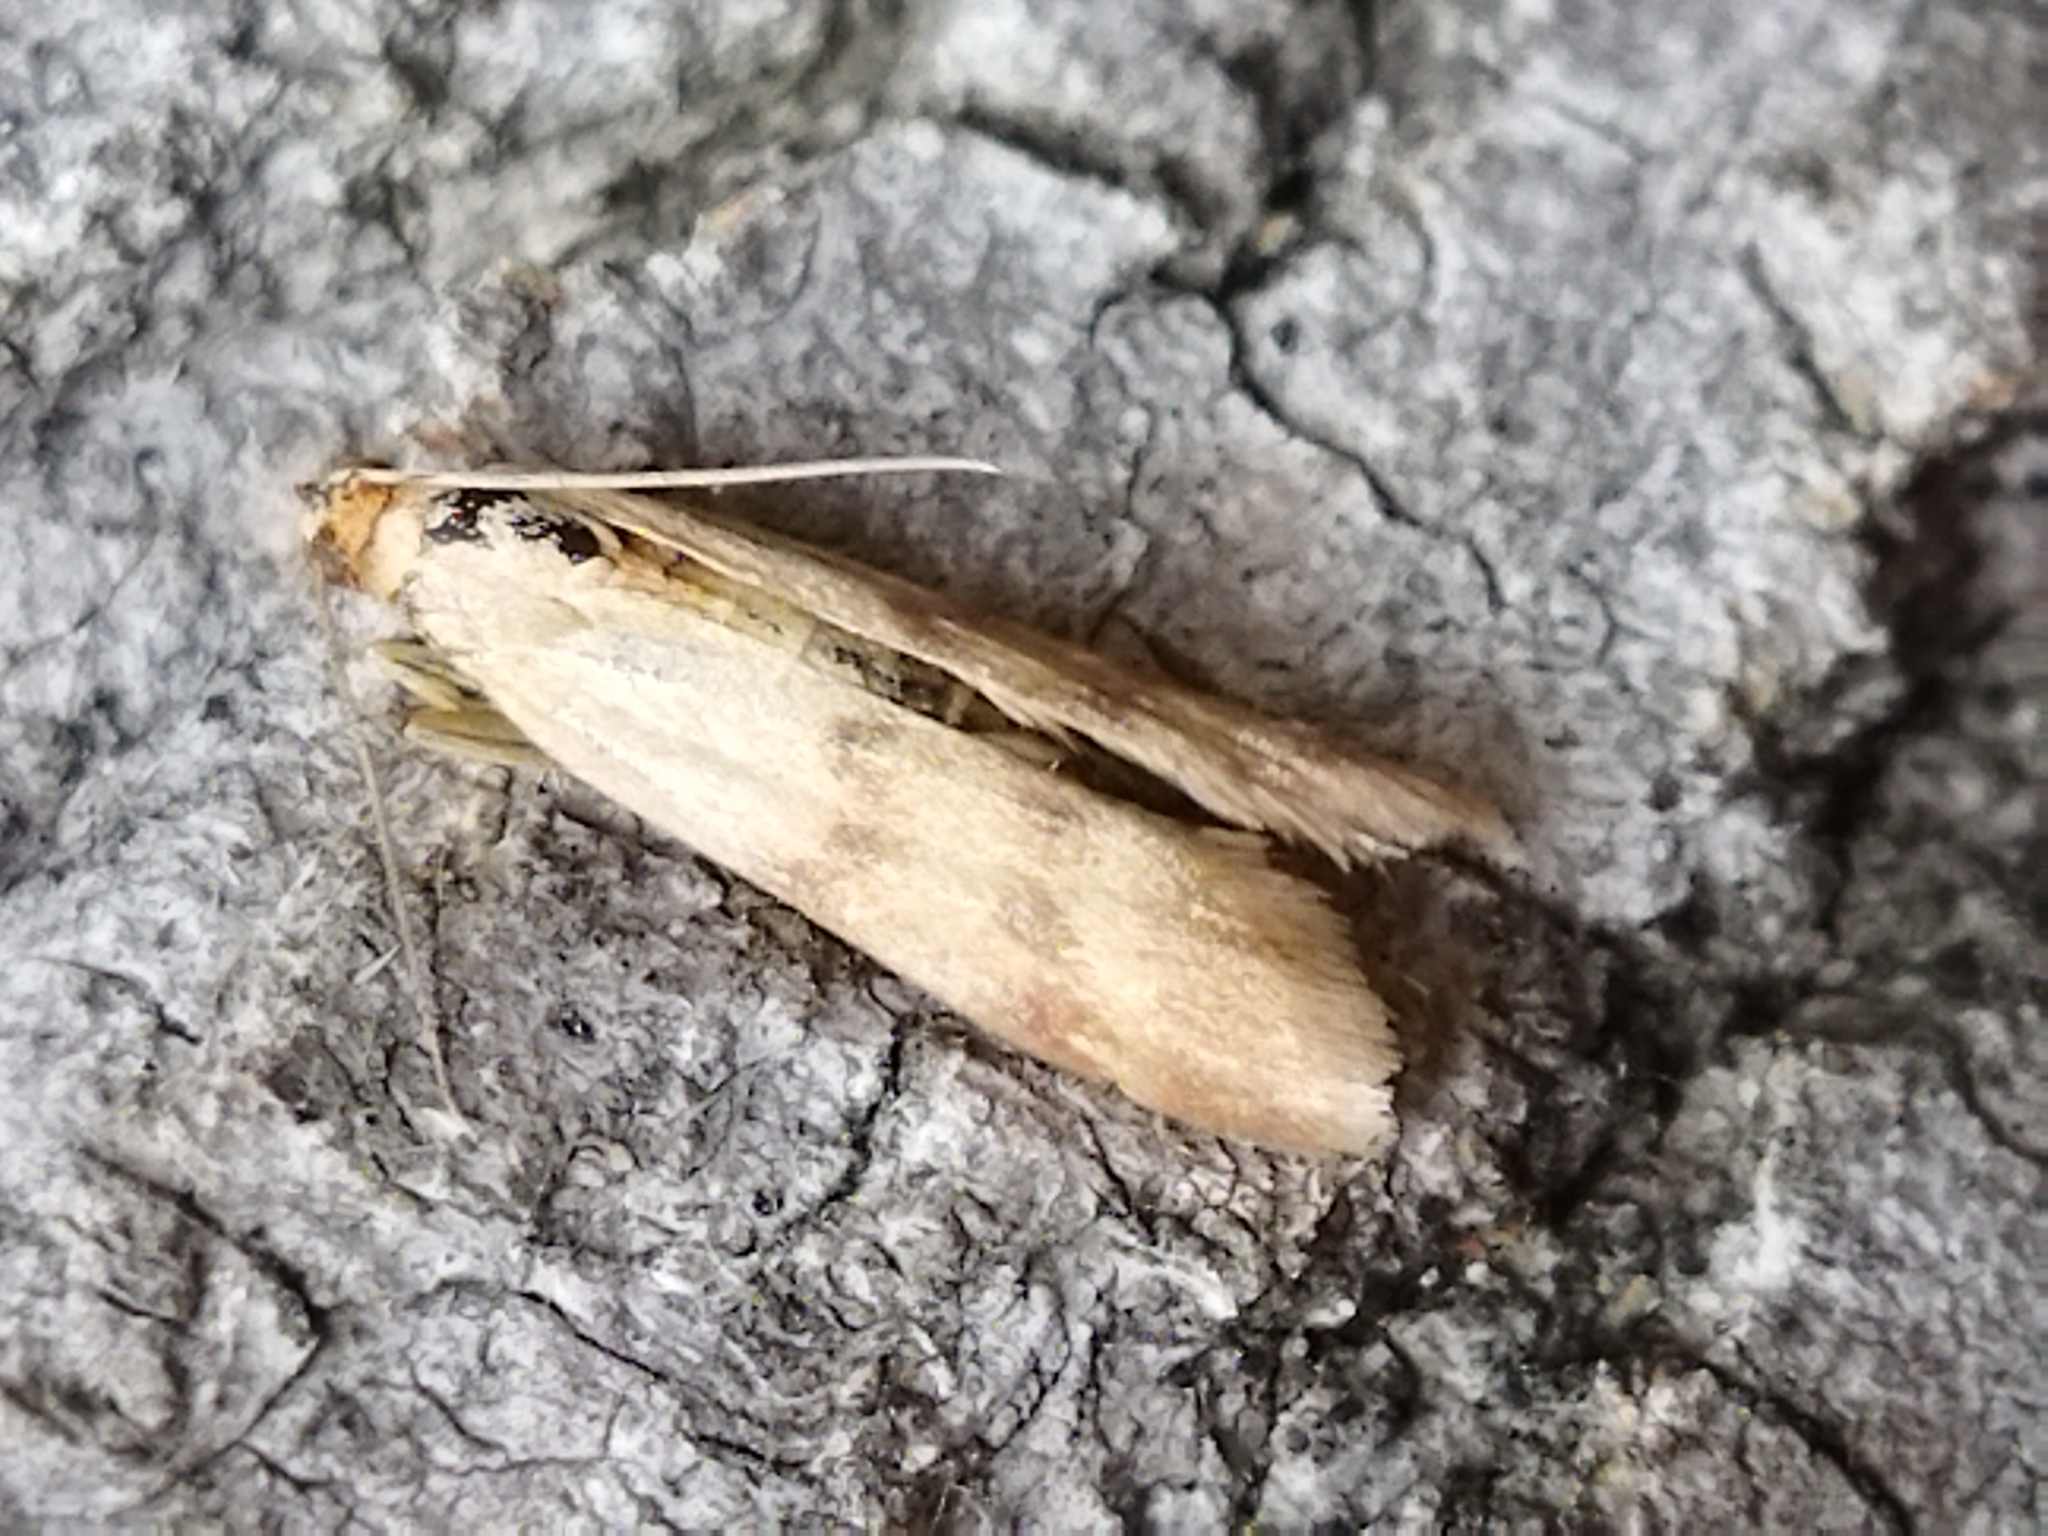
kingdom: Animalia
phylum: Arthropoda
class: Insecta
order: Lepidoptera
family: Pyralidae
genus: Homoeosoma
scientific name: Homoeosoma sinuella
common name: Twin-barred knot-horn
